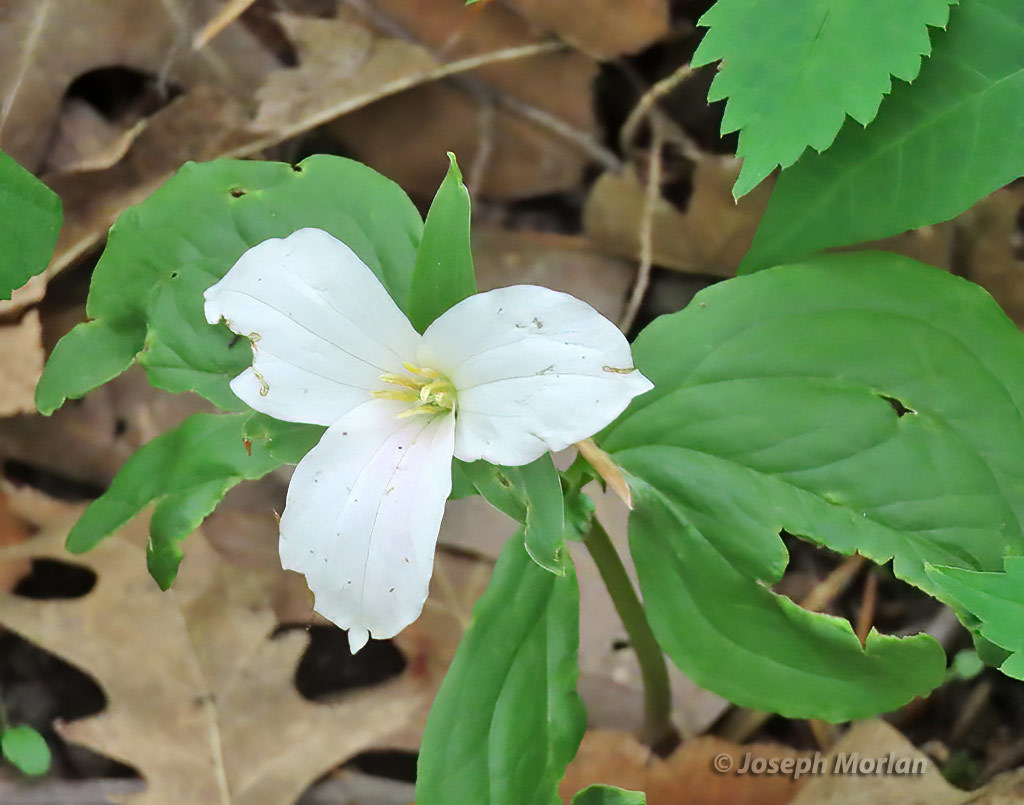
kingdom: Plantae
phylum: Tracheophyta
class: Liliopsida
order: Liliales
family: Melanthiaceae
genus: Trillium
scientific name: Trillium grandiflorum
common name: Great white trillium
